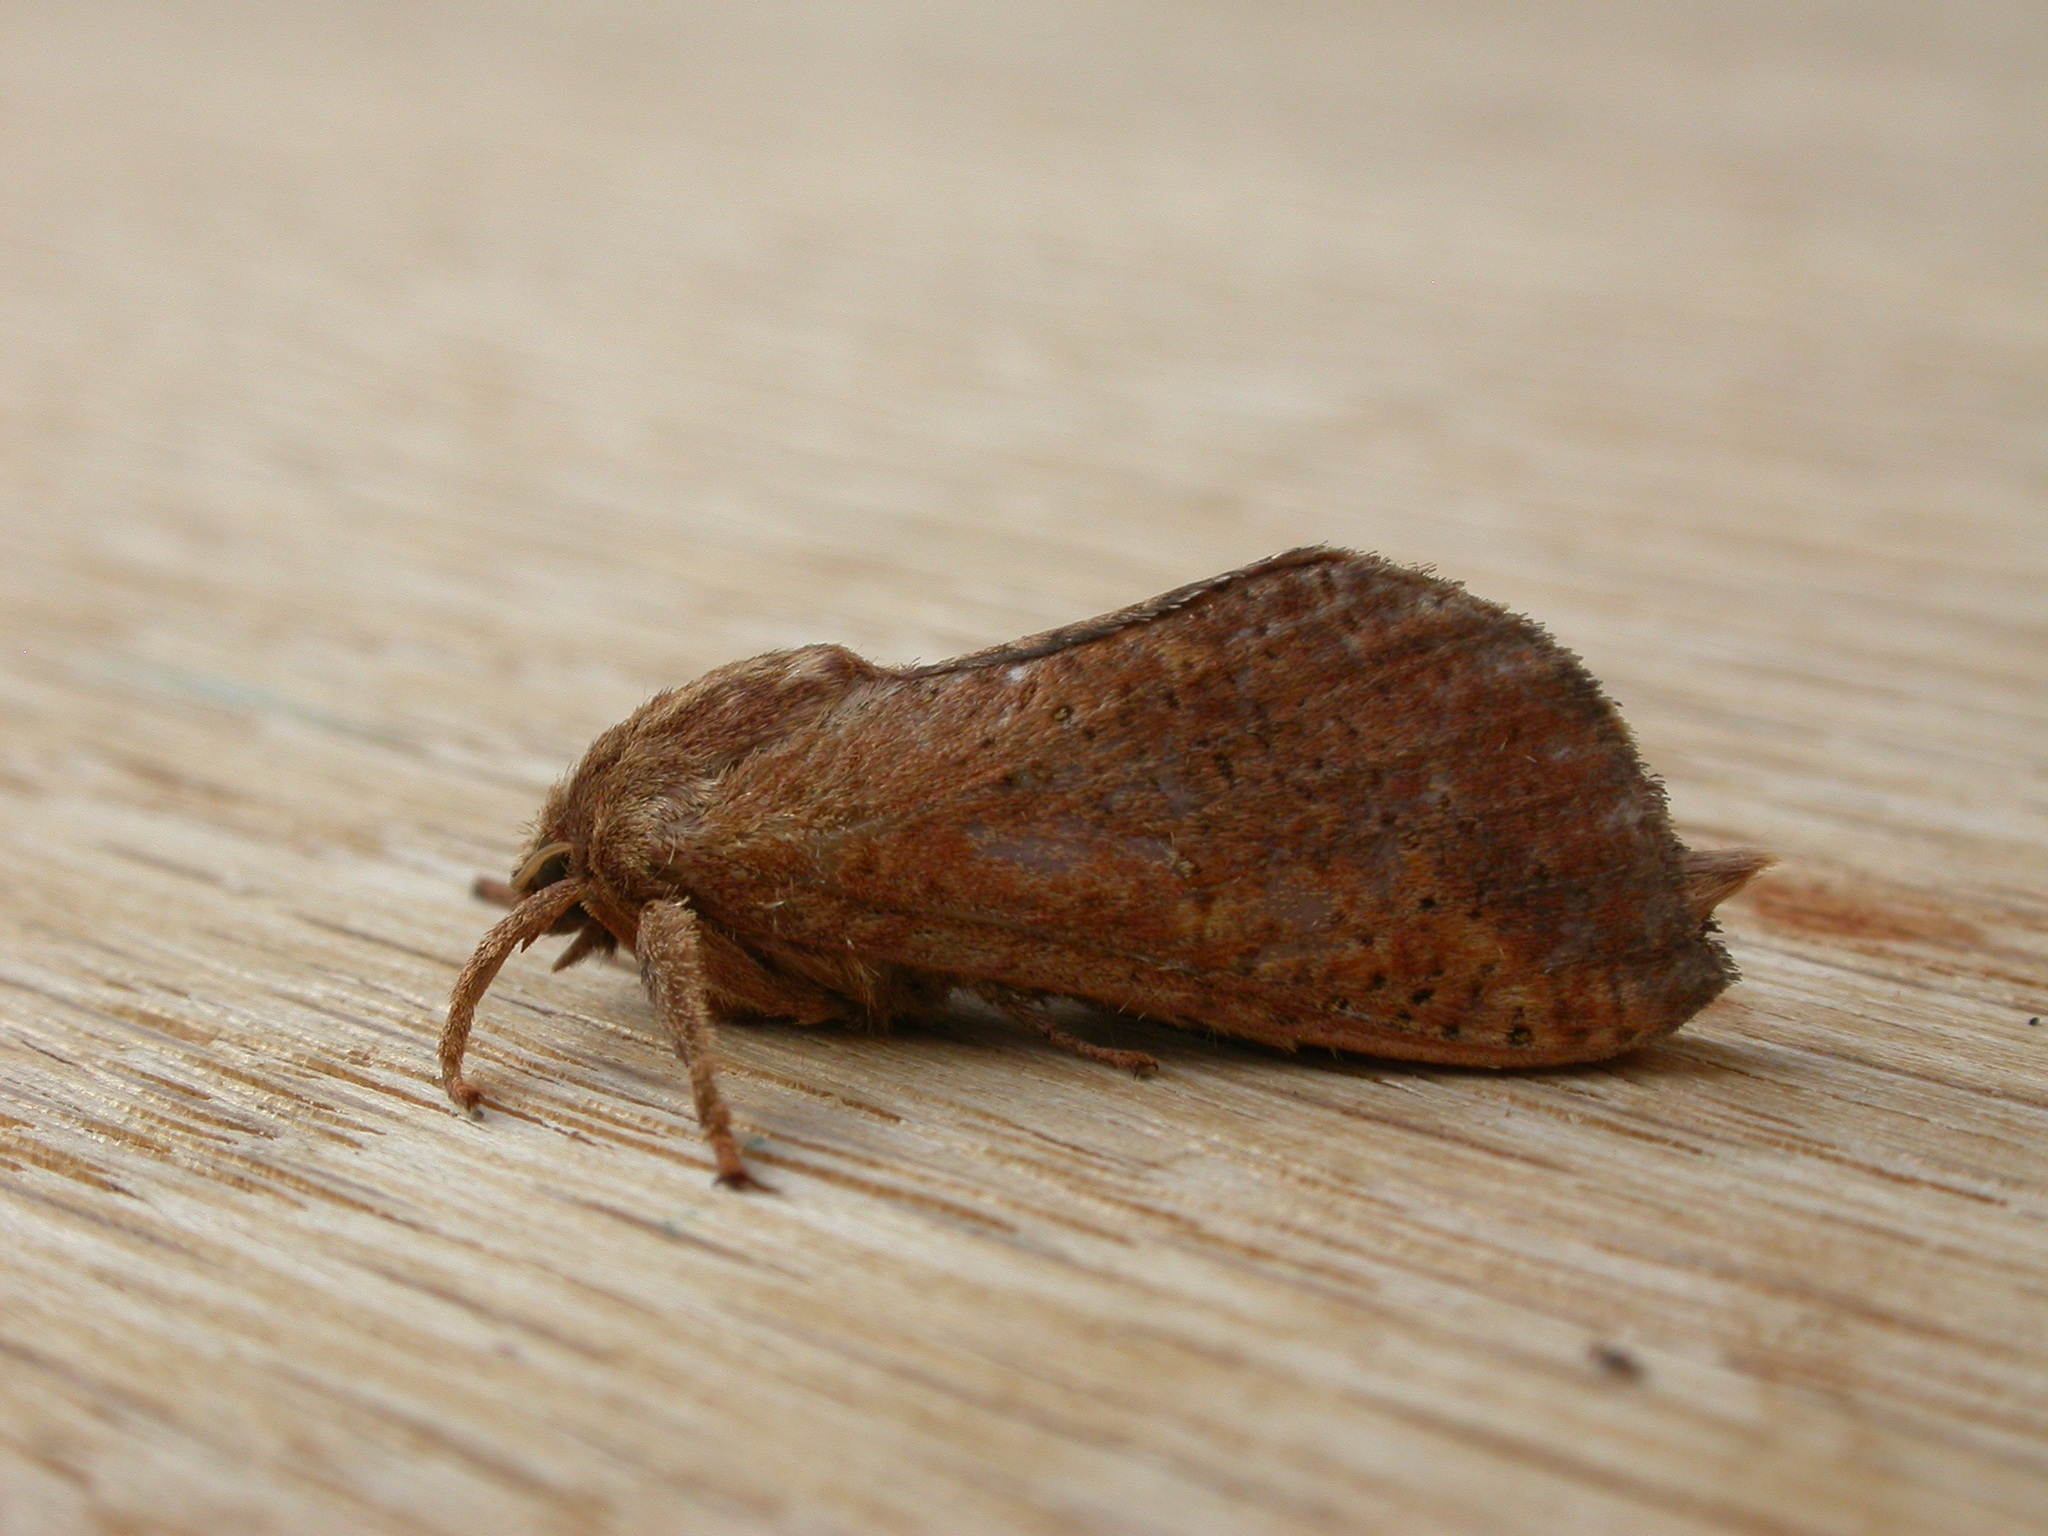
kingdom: Animalia
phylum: Arthropoda
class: Insecta
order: Lepidoptera
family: Hepialidae
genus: Elhamma
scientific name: Elhamma australasiae
